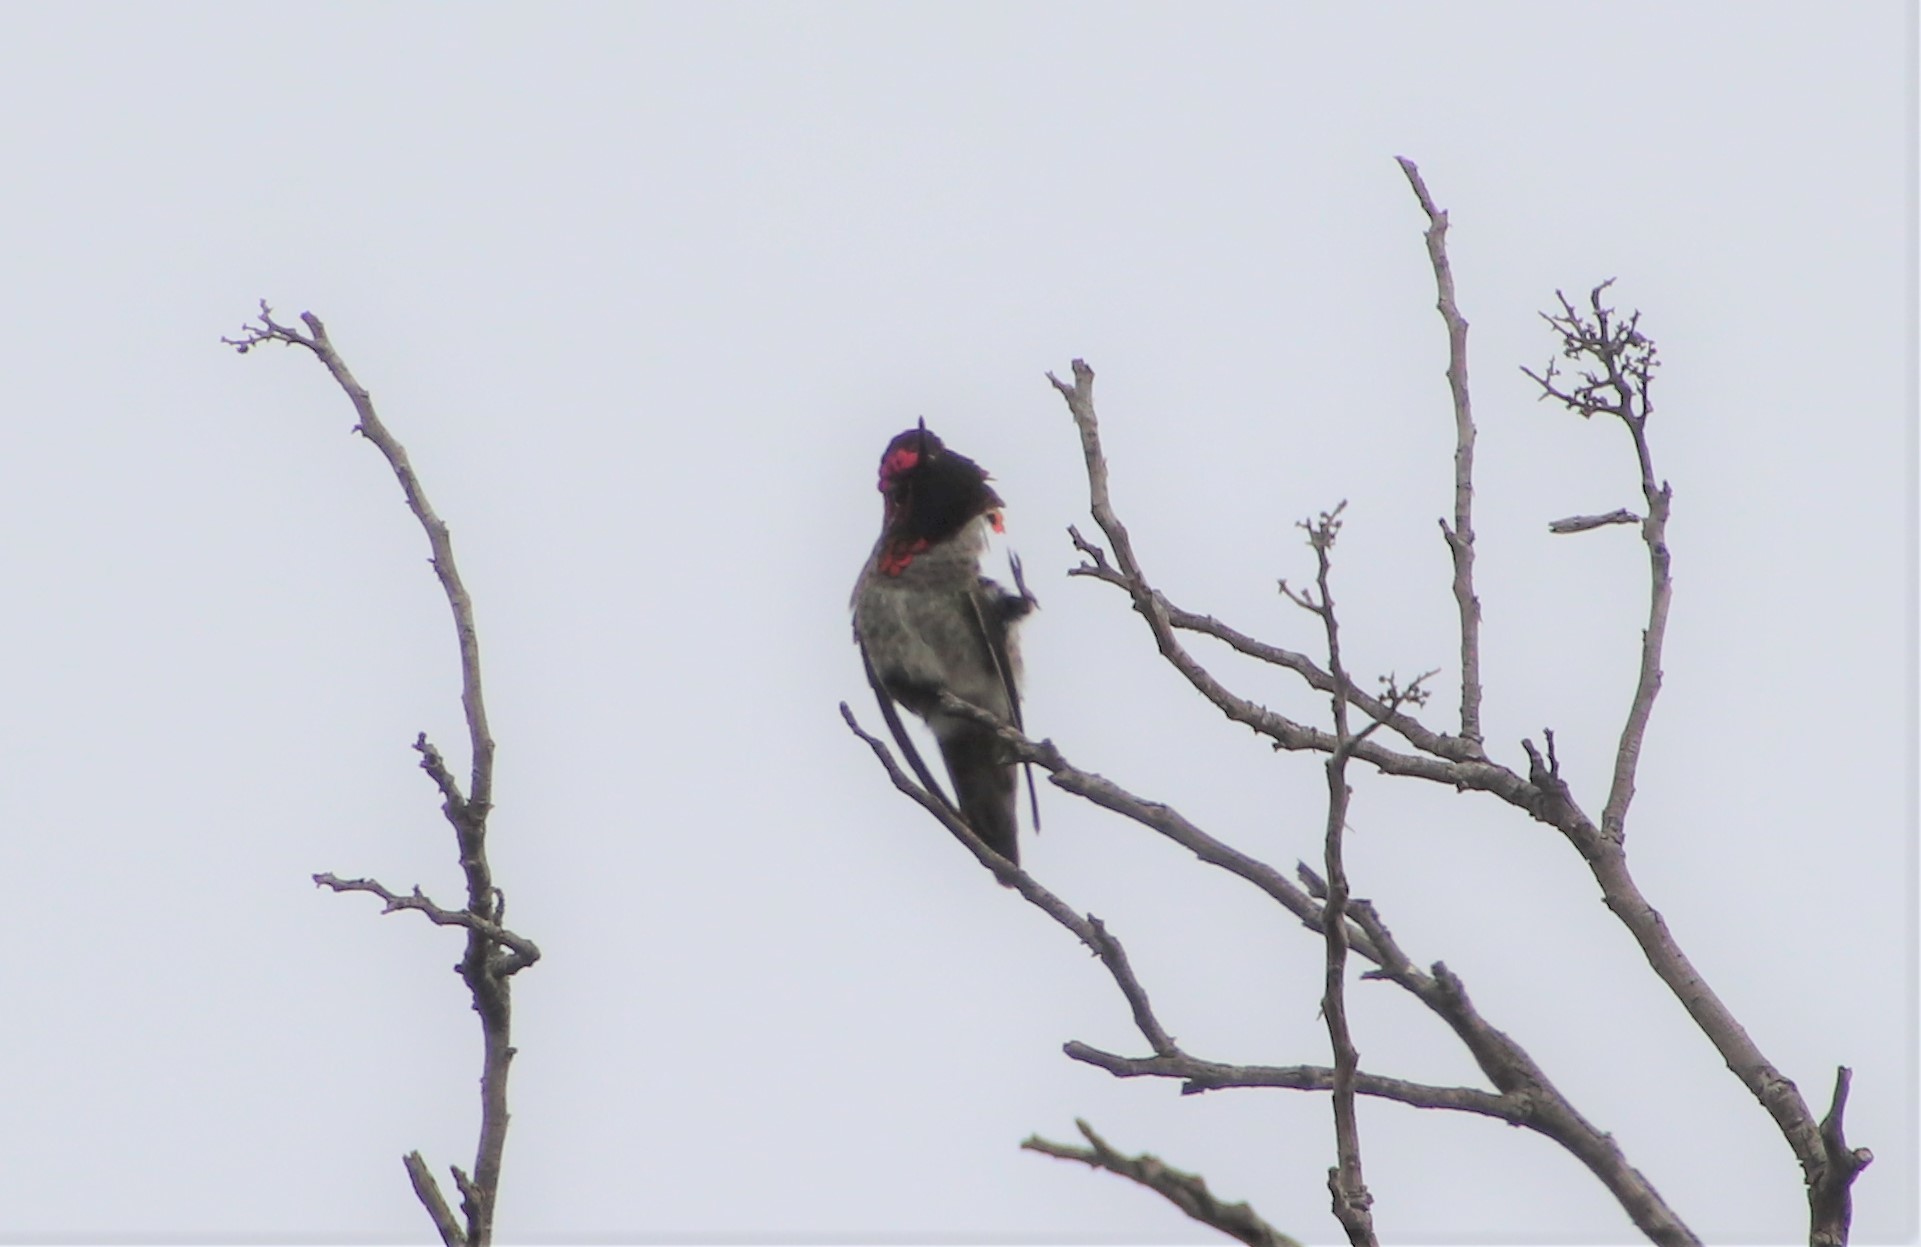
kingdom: Animalia
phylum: Chordata
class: Aves
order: Apodiformes
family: Trochilidae
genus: Calypte
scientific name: Calypte anna
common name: Anna's hummingbird
